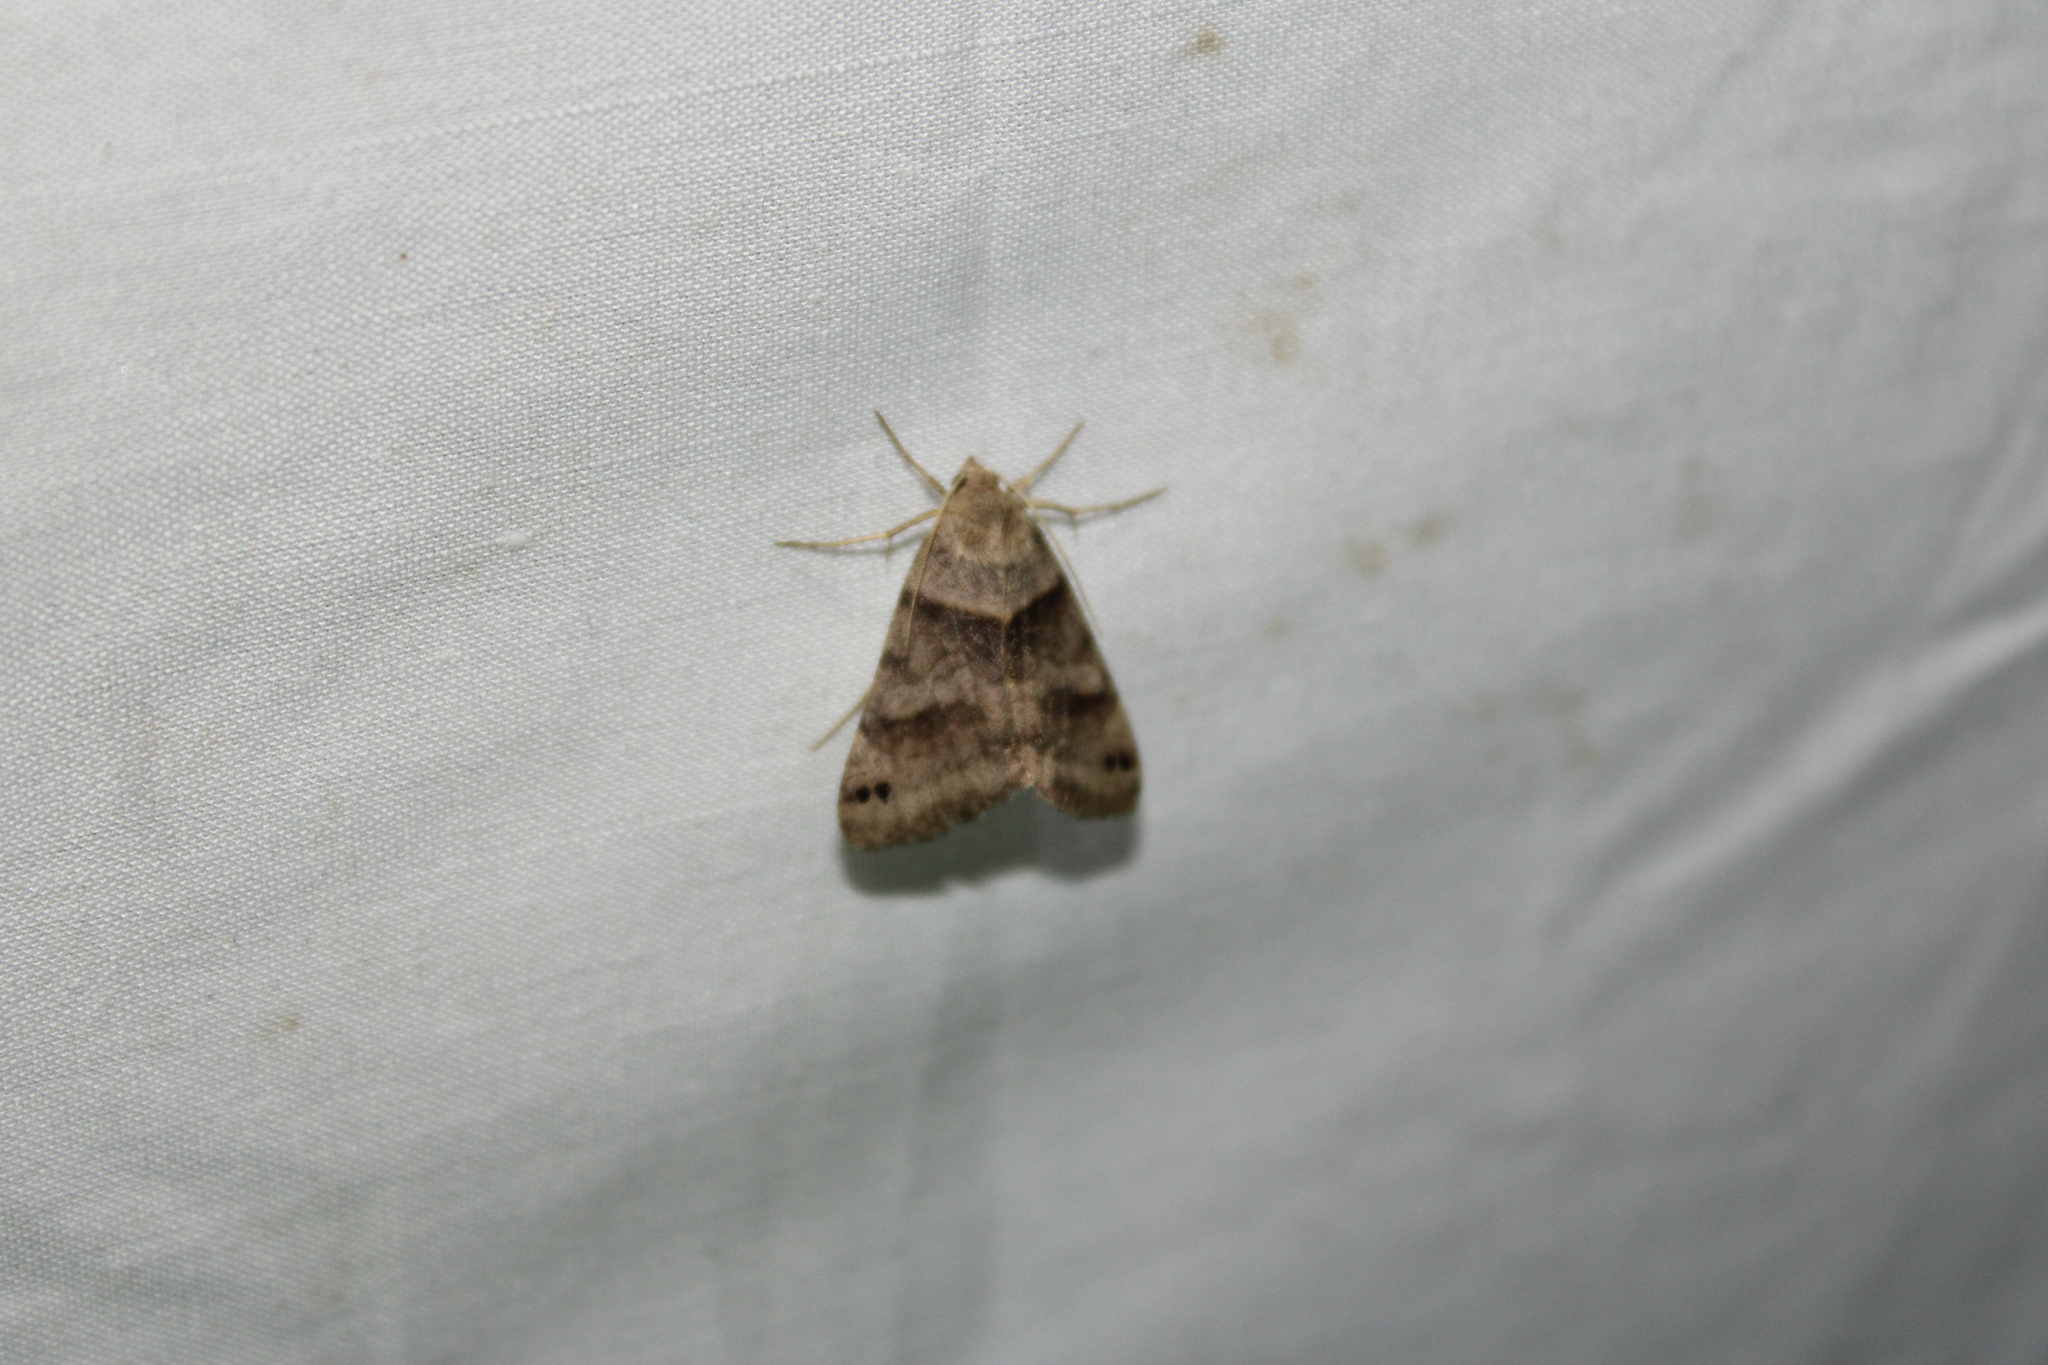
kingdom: Animalia
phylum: Arthropoda
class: Insecta
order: Lepidoptera
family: Erebidae
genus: Caenurgina
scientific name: Caenurgina crassiuscula
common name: Double-barred
